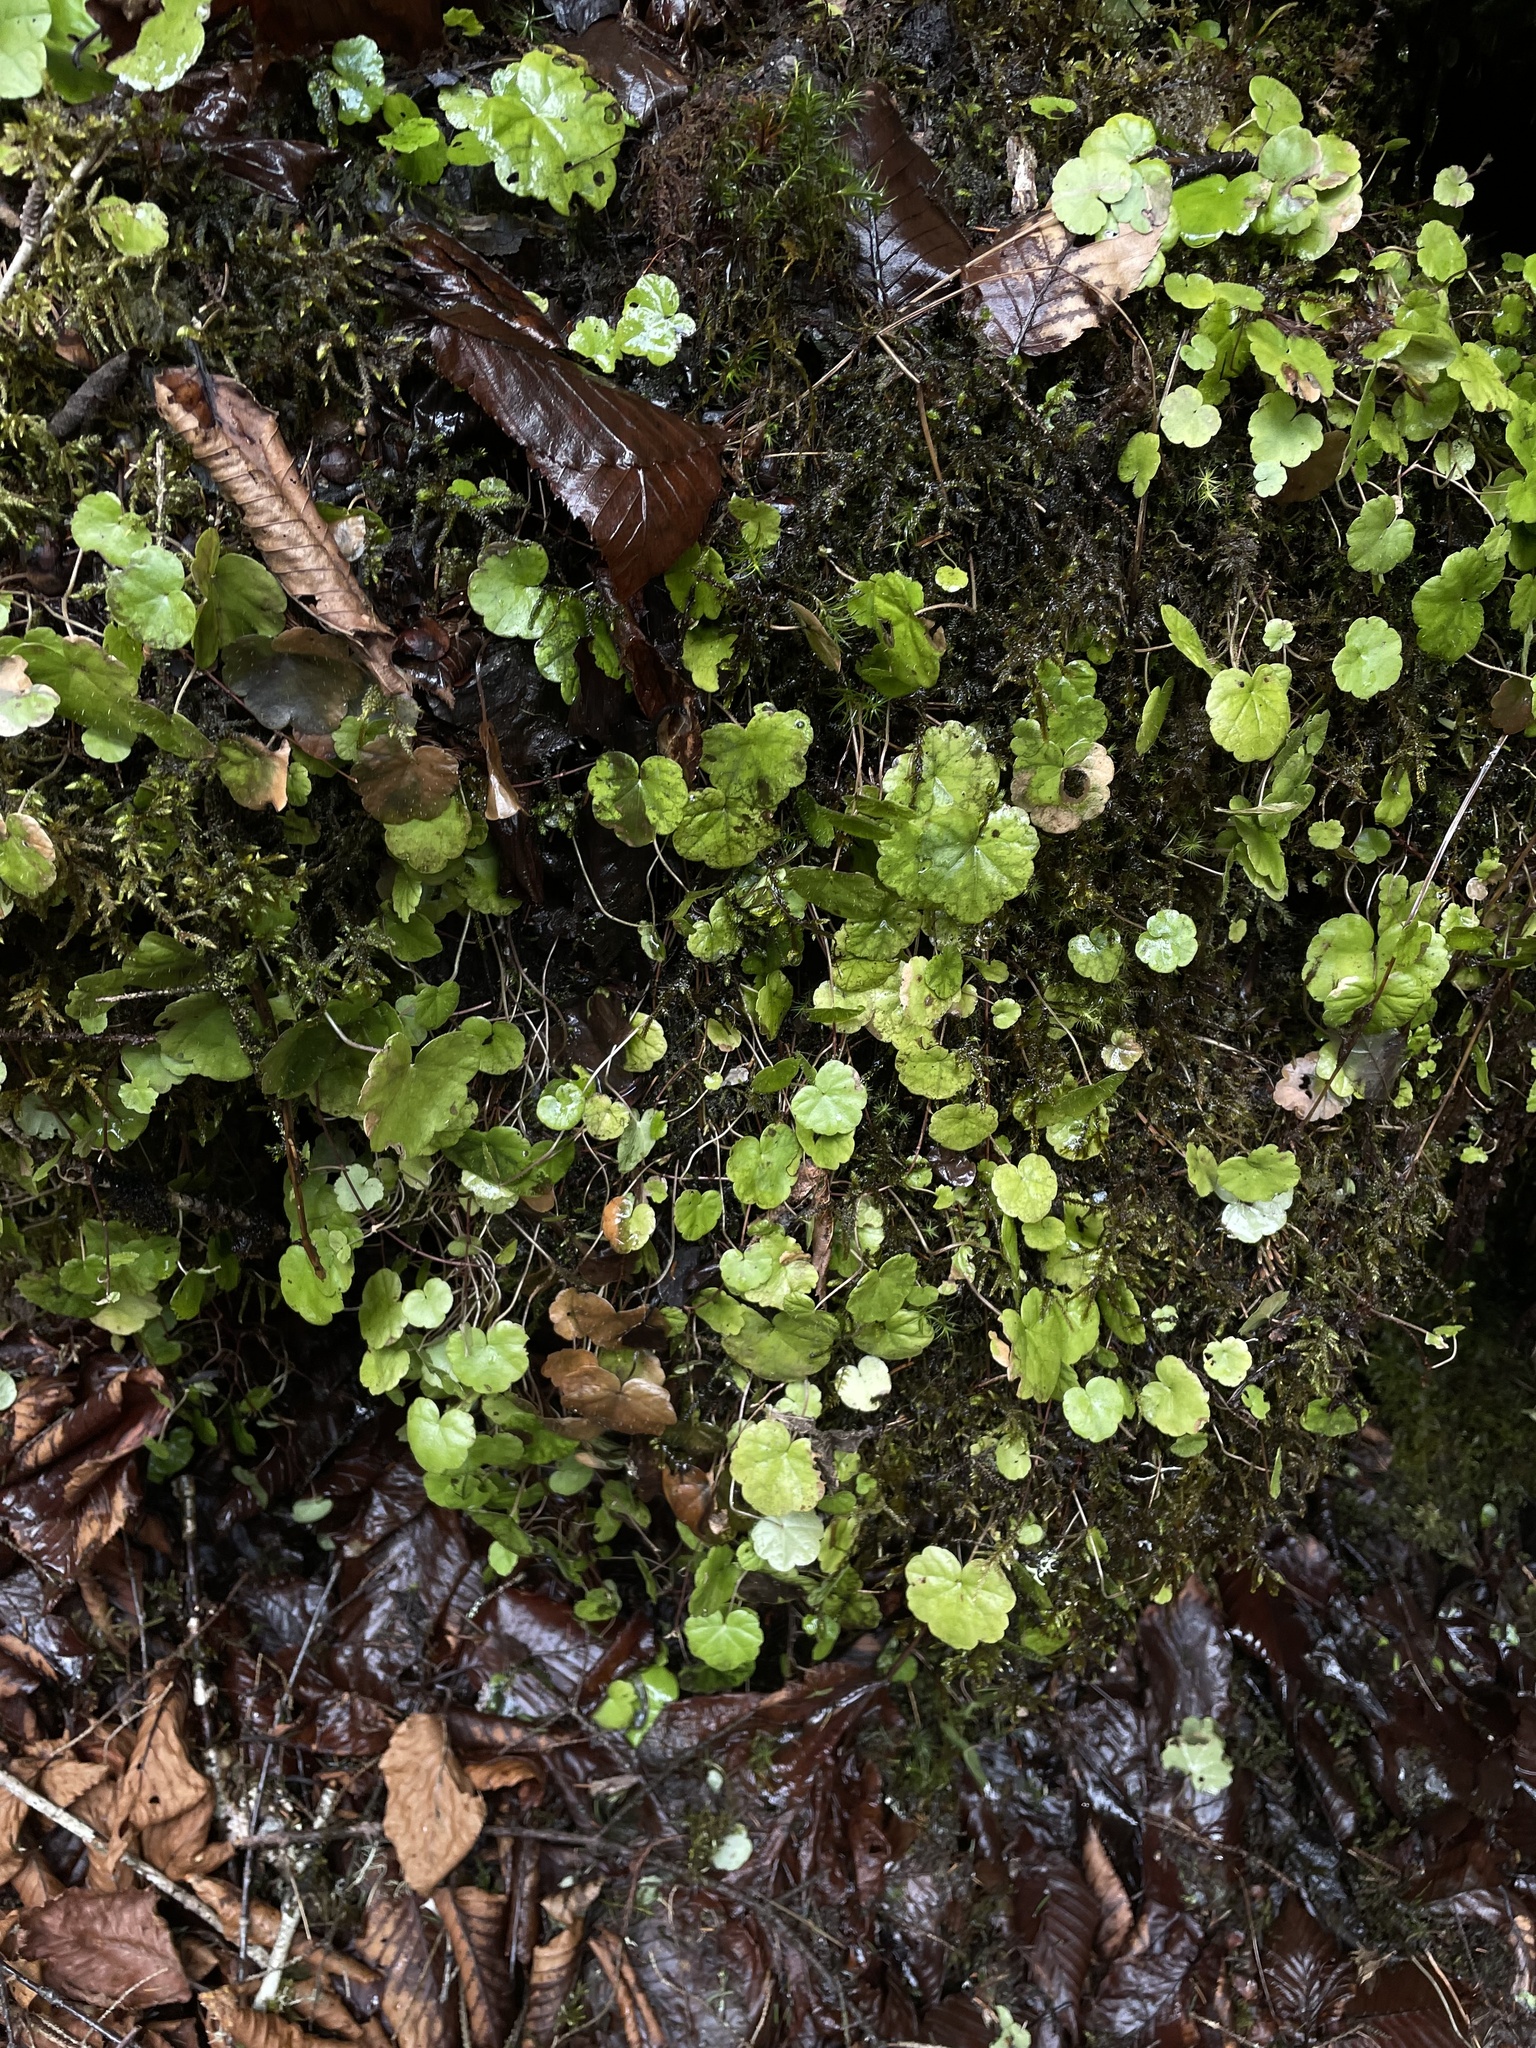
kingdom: Plantae
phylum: Tracheophyta
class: Magnoliopsida
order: Saxifragales
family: Saxifragaceae
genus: Mitella
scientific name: Mitella nuda
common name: Bare-stemmed bishop's-cap
